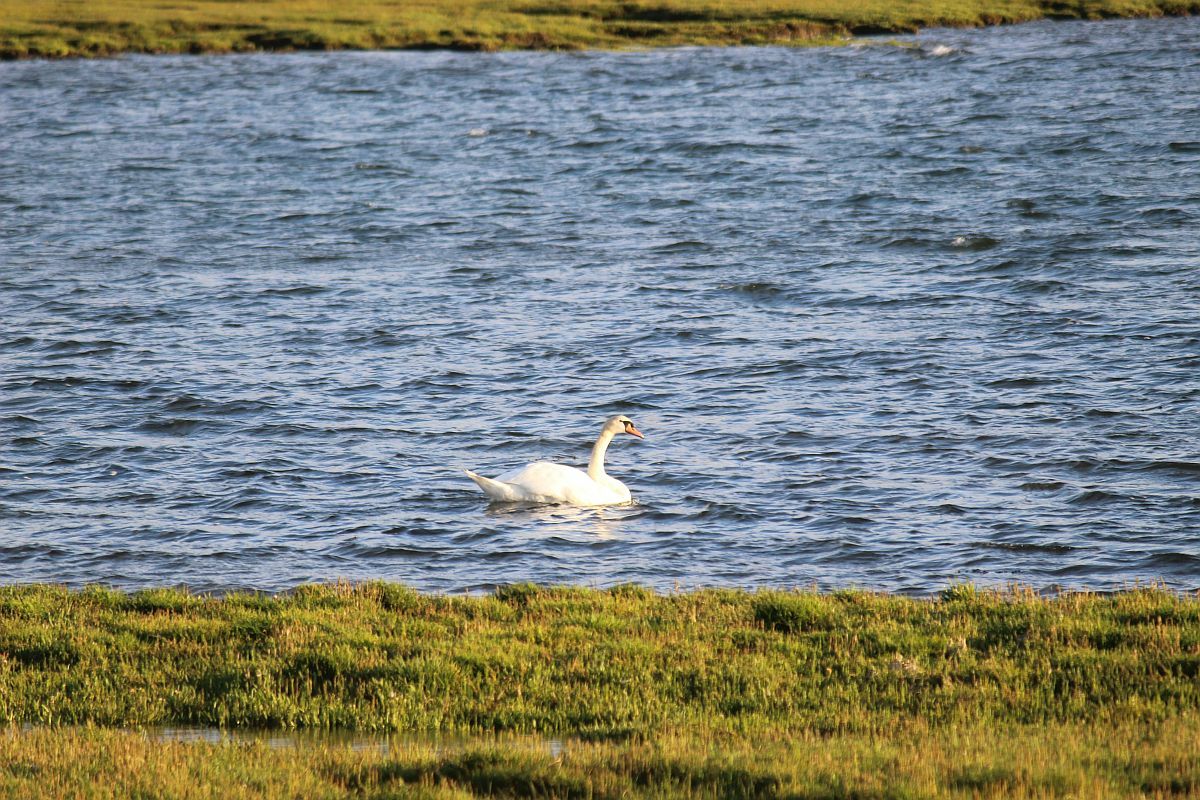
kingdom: Animalia
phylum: Chordata
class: Aves
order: Anseriformes
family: Anatidae
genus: Cygnus
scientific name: Cygnus olor
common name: Mute swan
